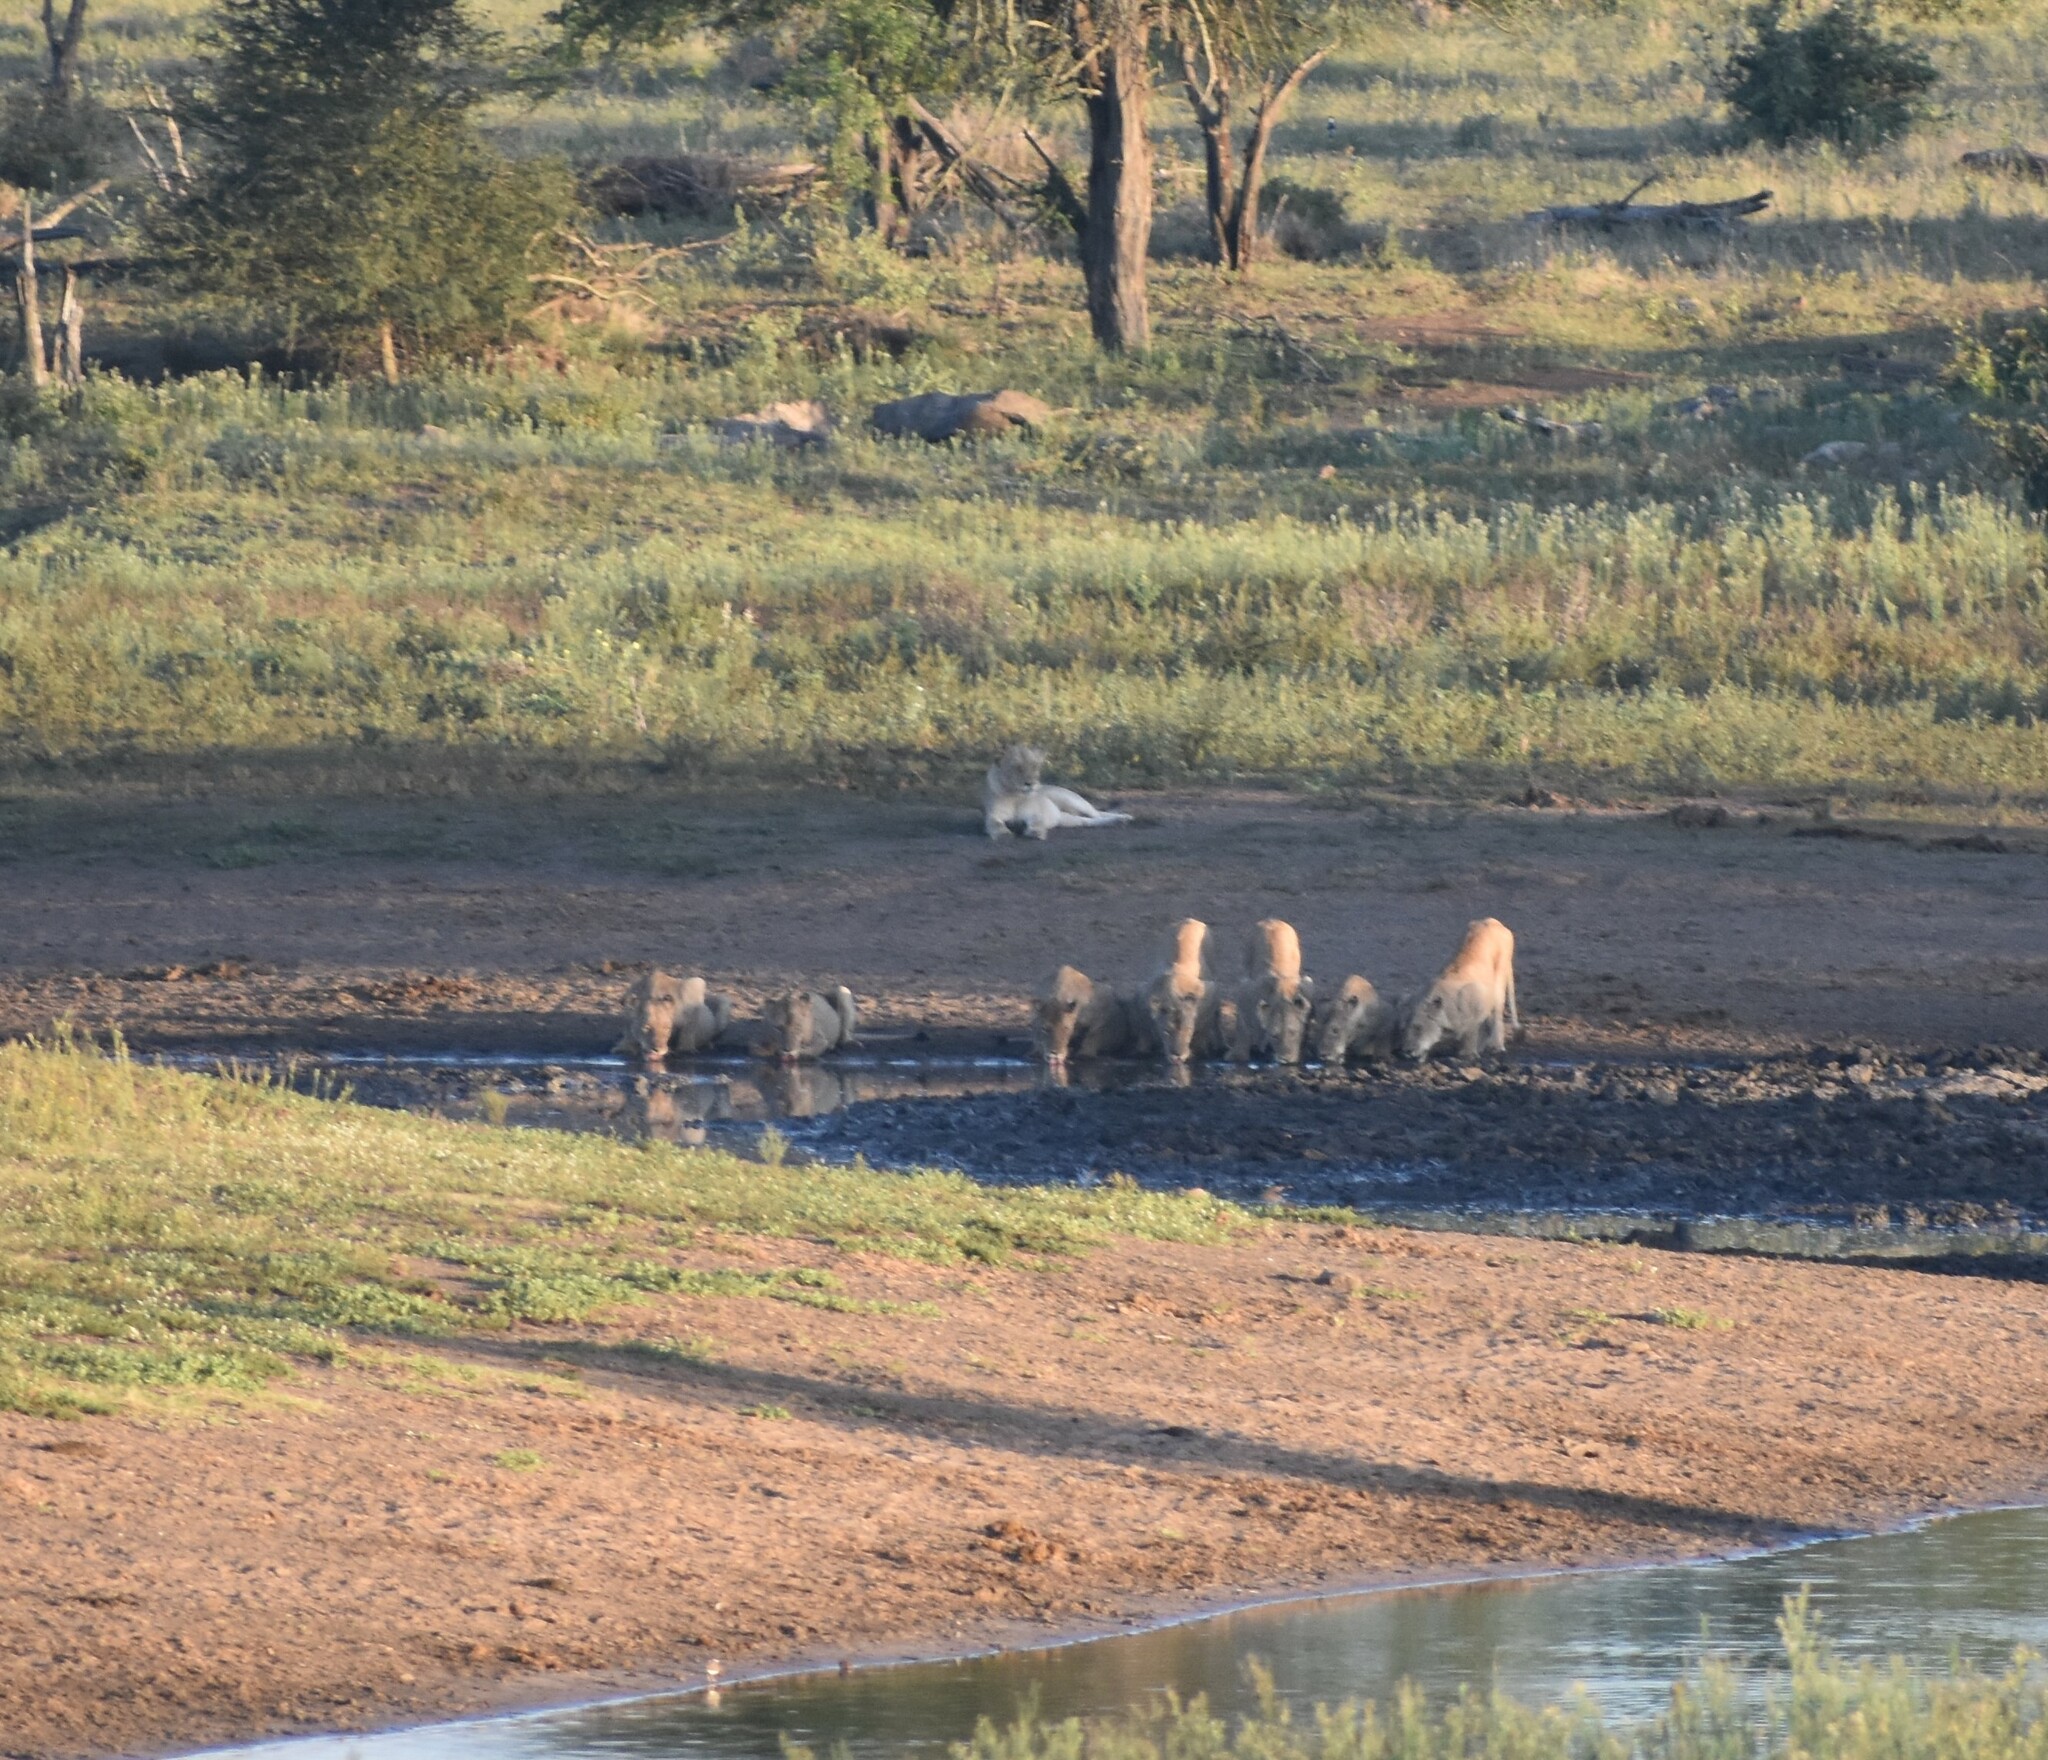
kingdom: Animalia
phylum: Chordata
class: Mammalia
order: Carnivora
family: Felidae
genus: Panthera
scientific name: Panthera leo
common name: Lion
